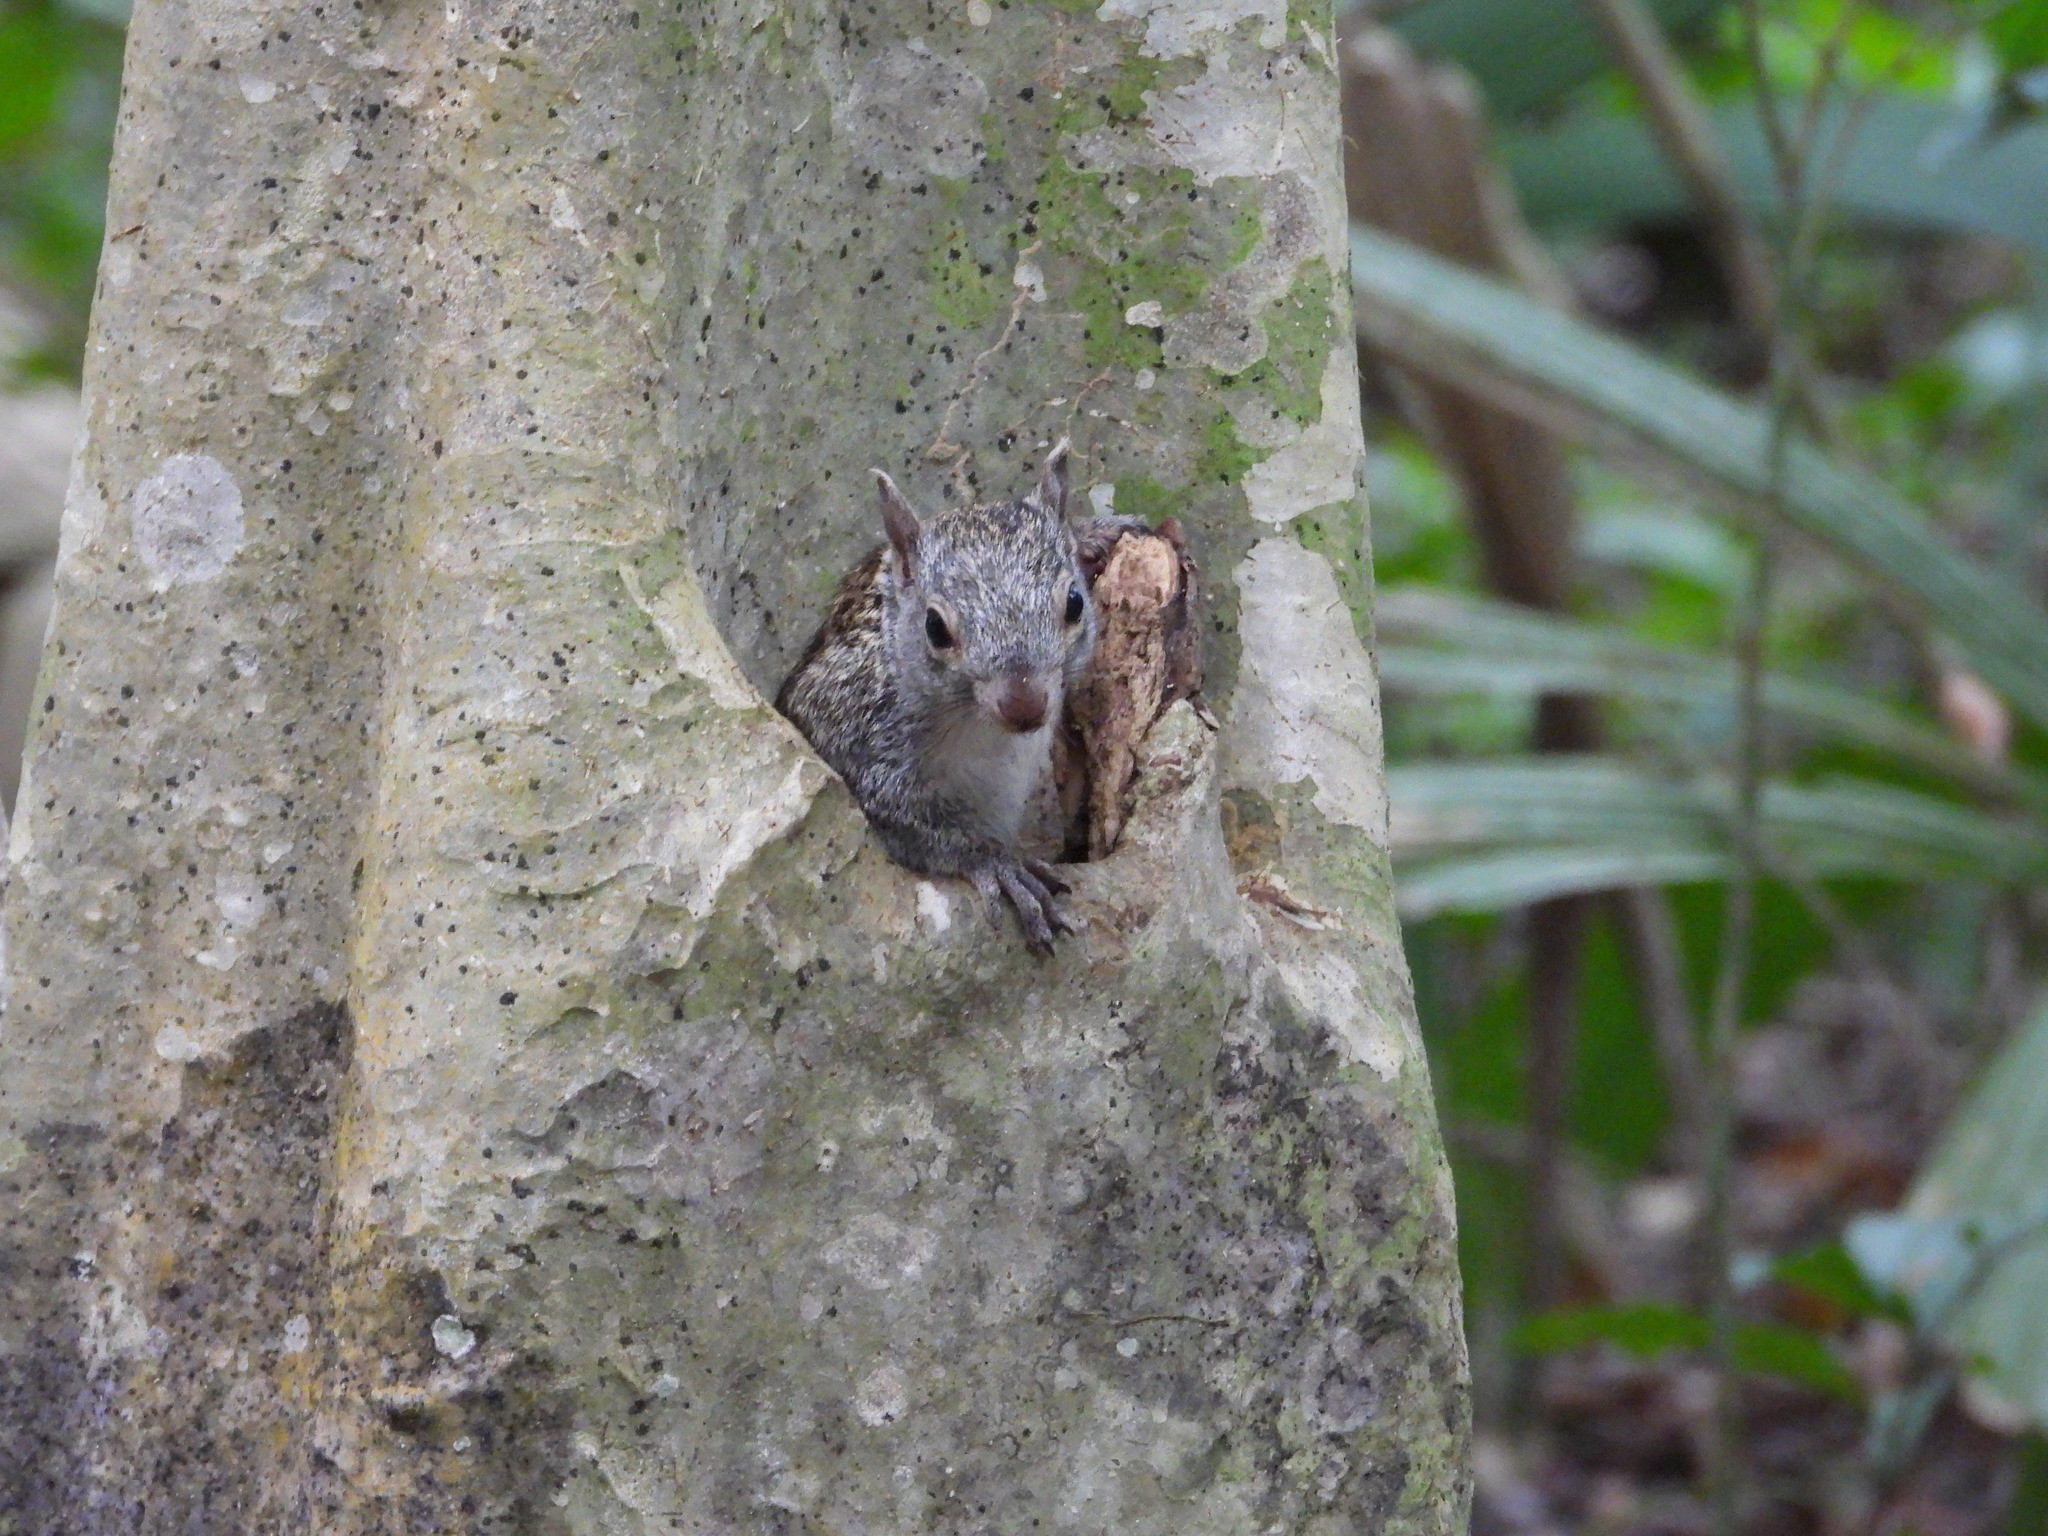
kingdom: Animalia
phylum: Chordata
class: Mammalia
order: Rodentia
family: Sciuridae
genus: Sciurus
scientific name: Sciurus yucatanensis
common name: Yucatan squirrel
